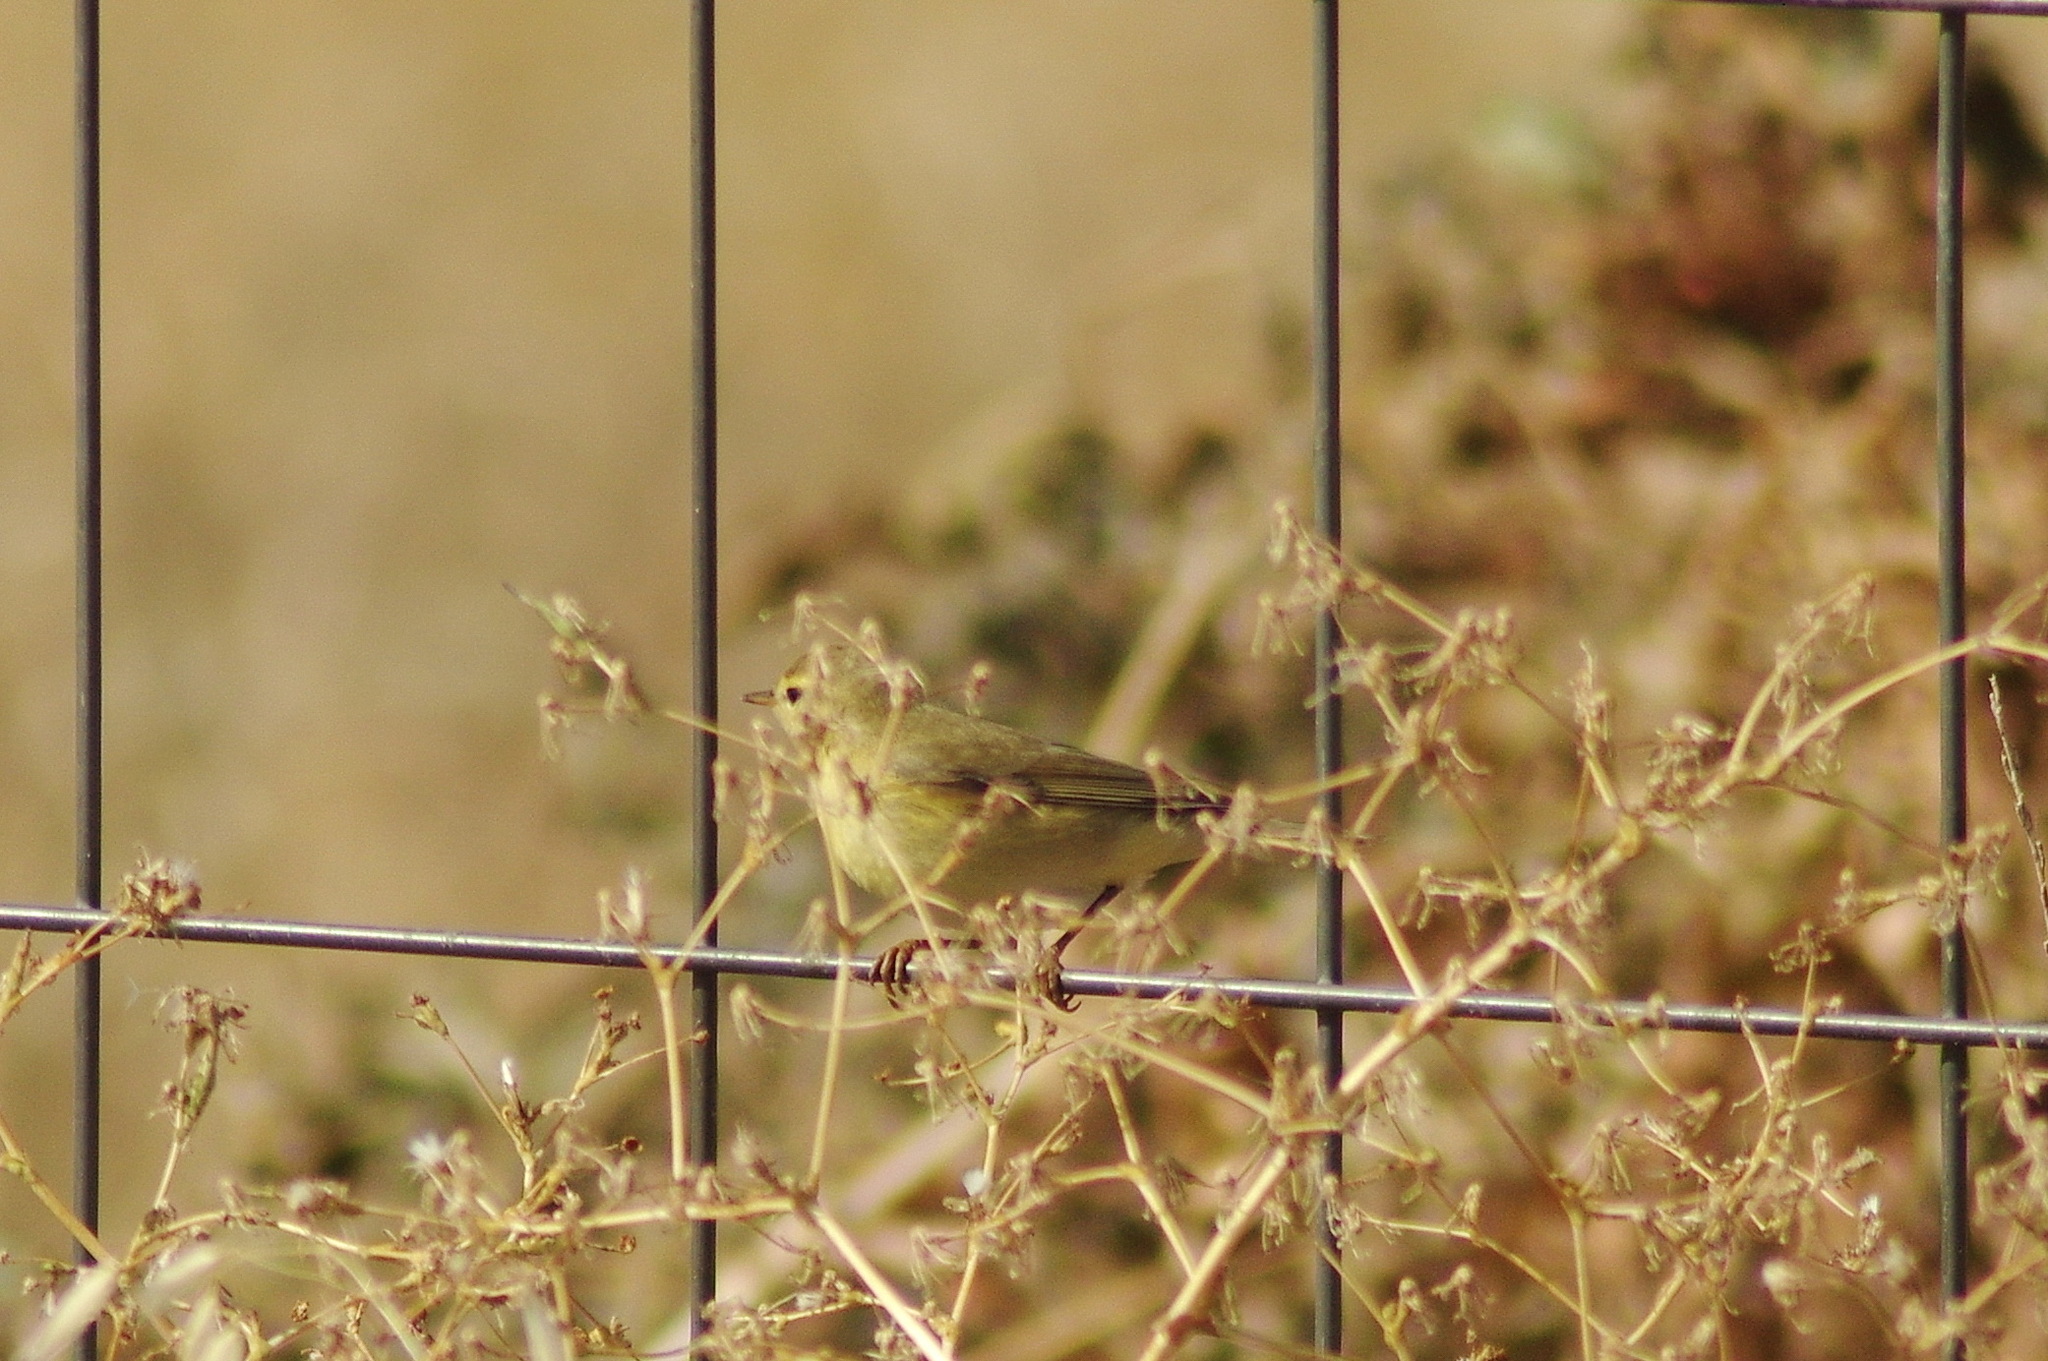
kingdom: Animalia
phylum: Chordata
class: Aves
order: Passeriformes
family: Phylloscopidae
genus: Phylloscopus
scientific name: Phylloscopus trochilus
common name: Willow warbler
